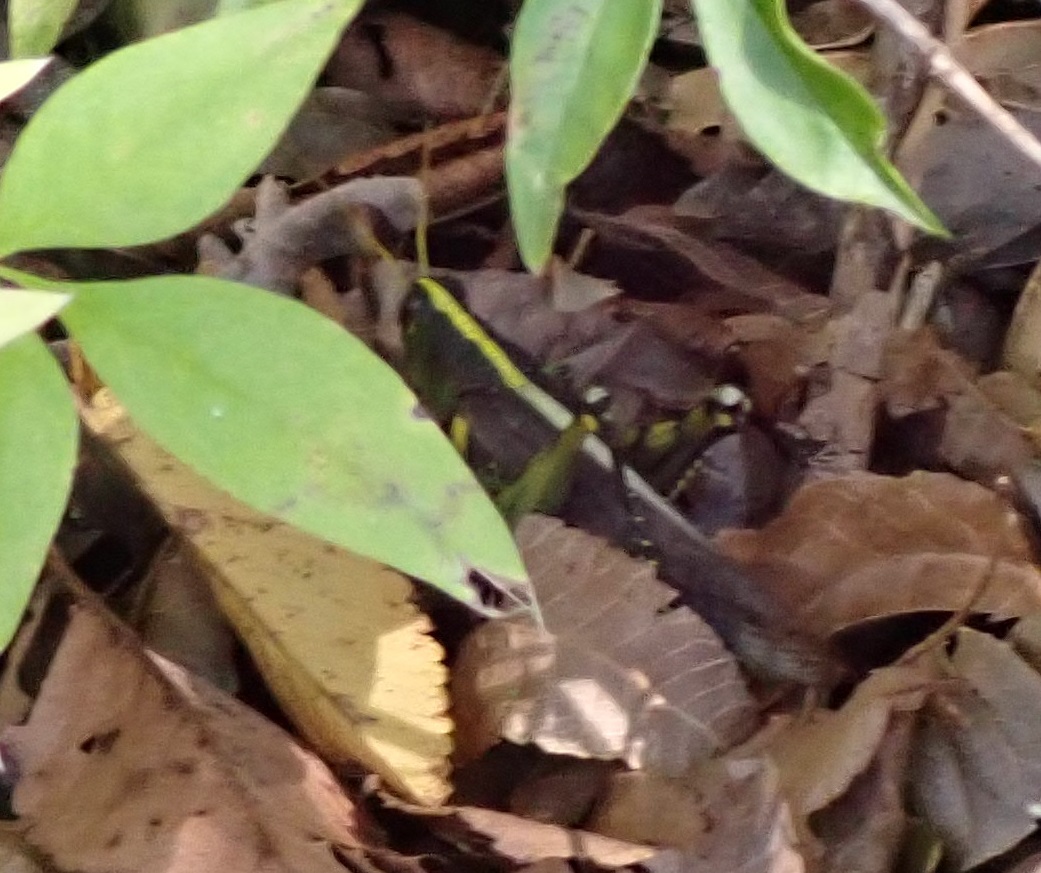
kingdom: Animalia
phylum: Arthropoda
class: Insecta
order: Orthoptera
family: Acrididae
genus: Schistocerca
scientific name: Schistocerca obscura
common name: Obscure bird grasshopper
